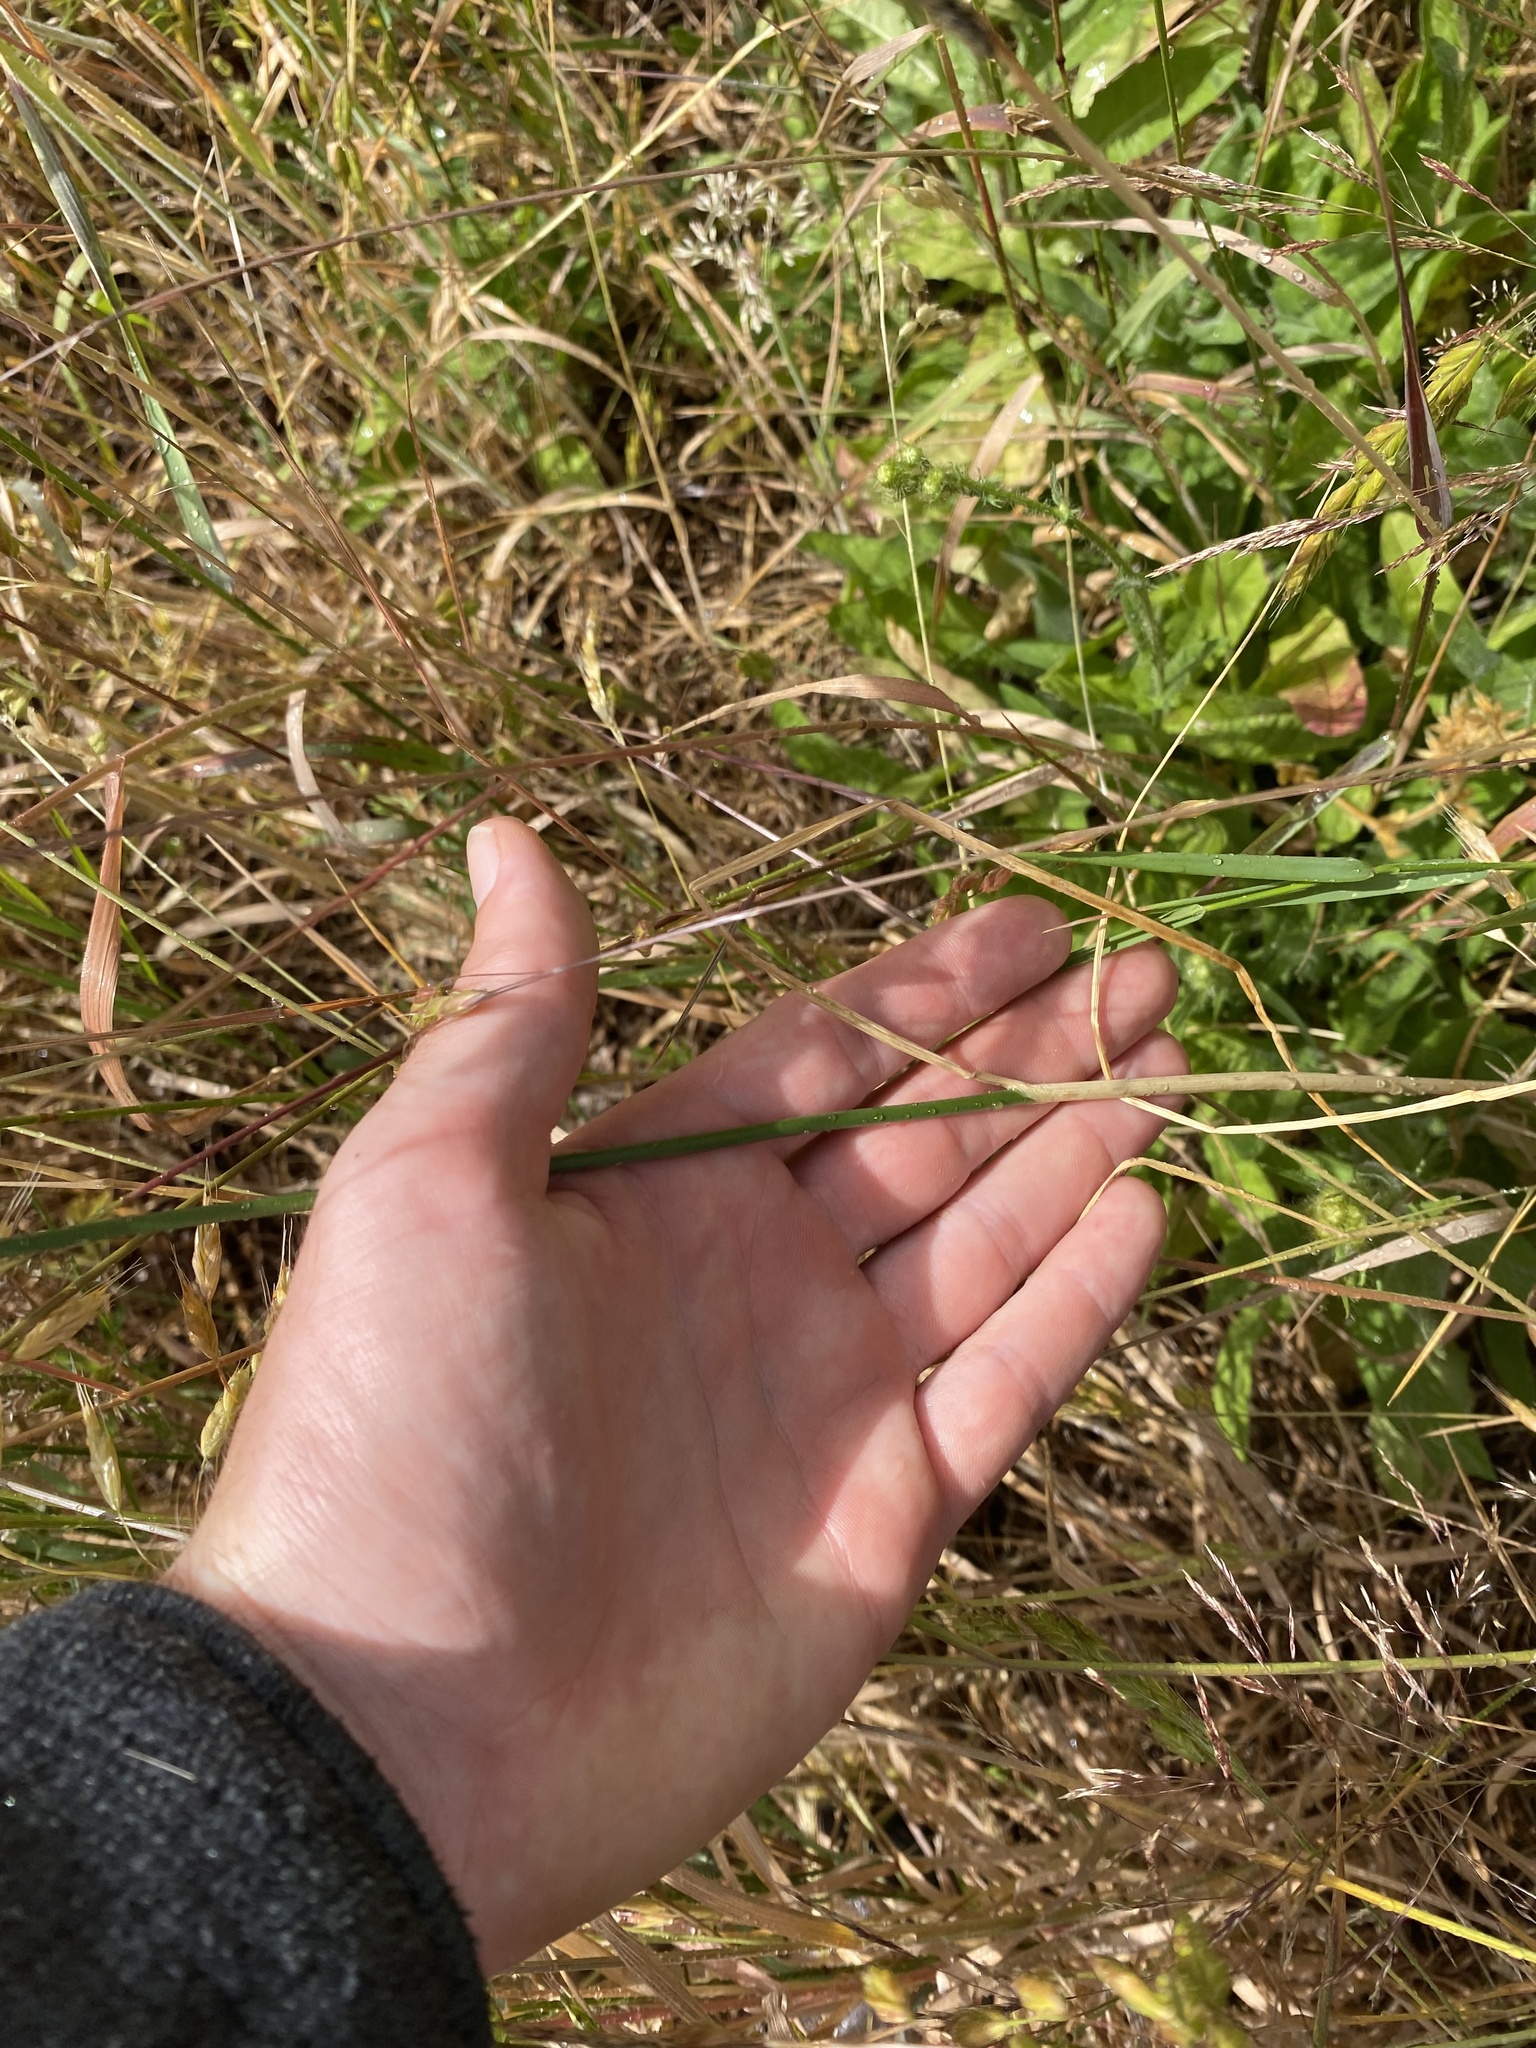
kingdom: Plantae
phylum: Tracheophyta
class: Liliopsida
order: Asparagales
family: Amaryllidaceae
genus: Allium
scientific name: Allium vineale
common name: Crow garlic
